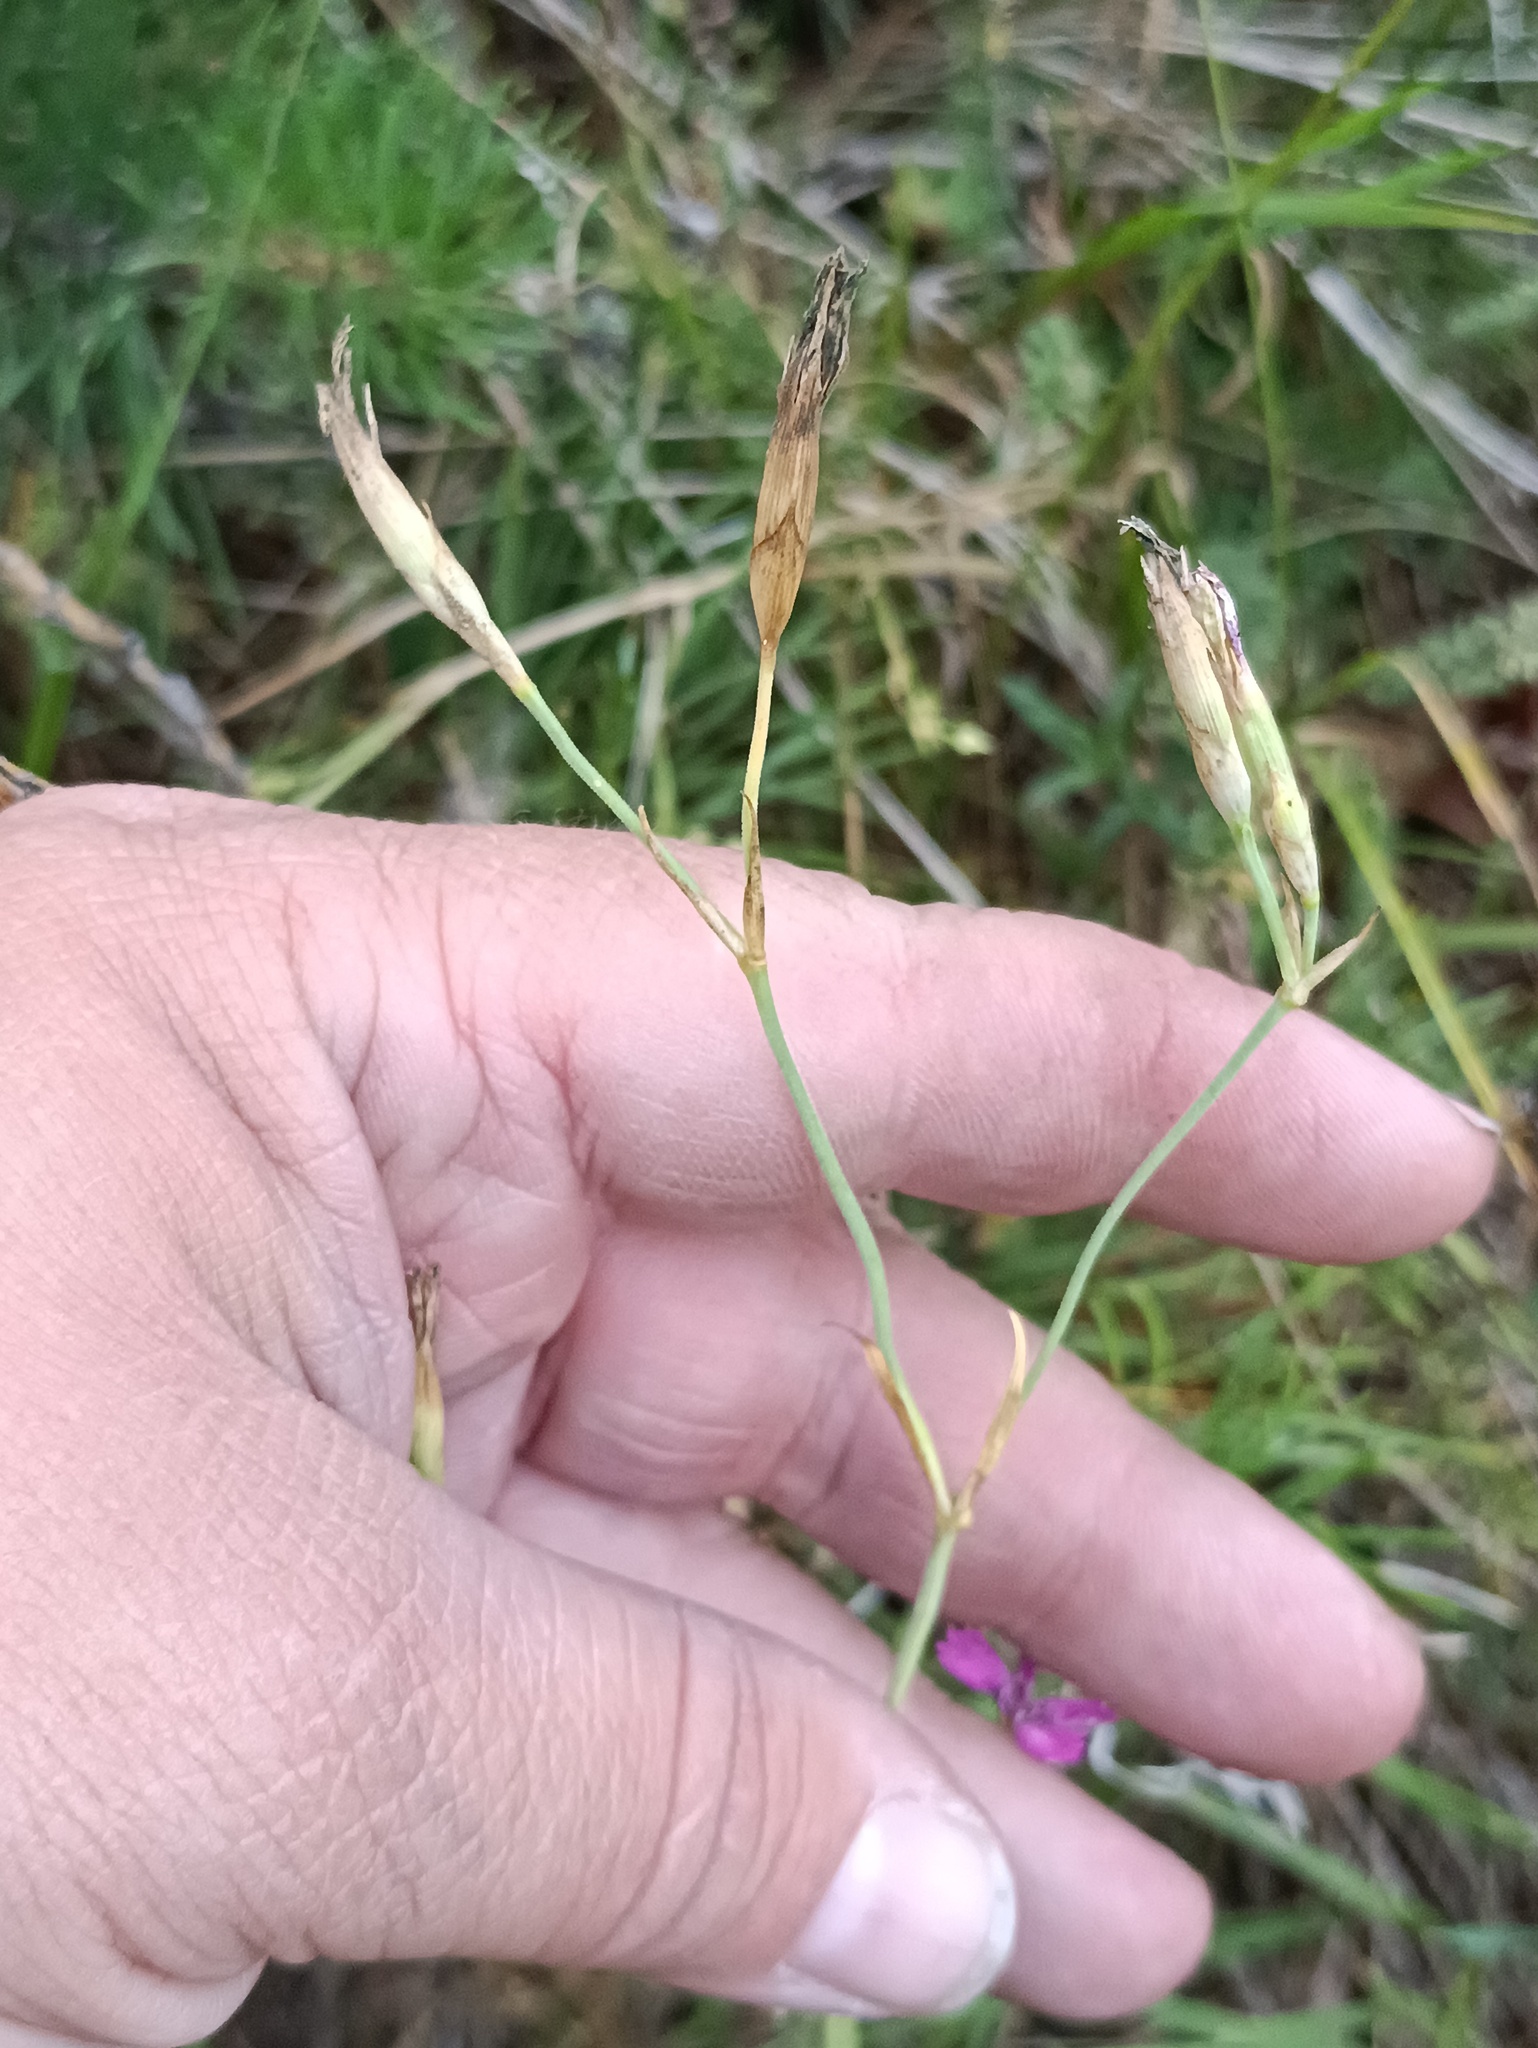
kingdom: Plantae
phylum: Tracheophyta
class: Magnoliopsida
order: Caryophyllales
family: Caryophyllaceae
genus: Dianthus
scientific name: Dianthus deltoides
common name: Maiden pink
